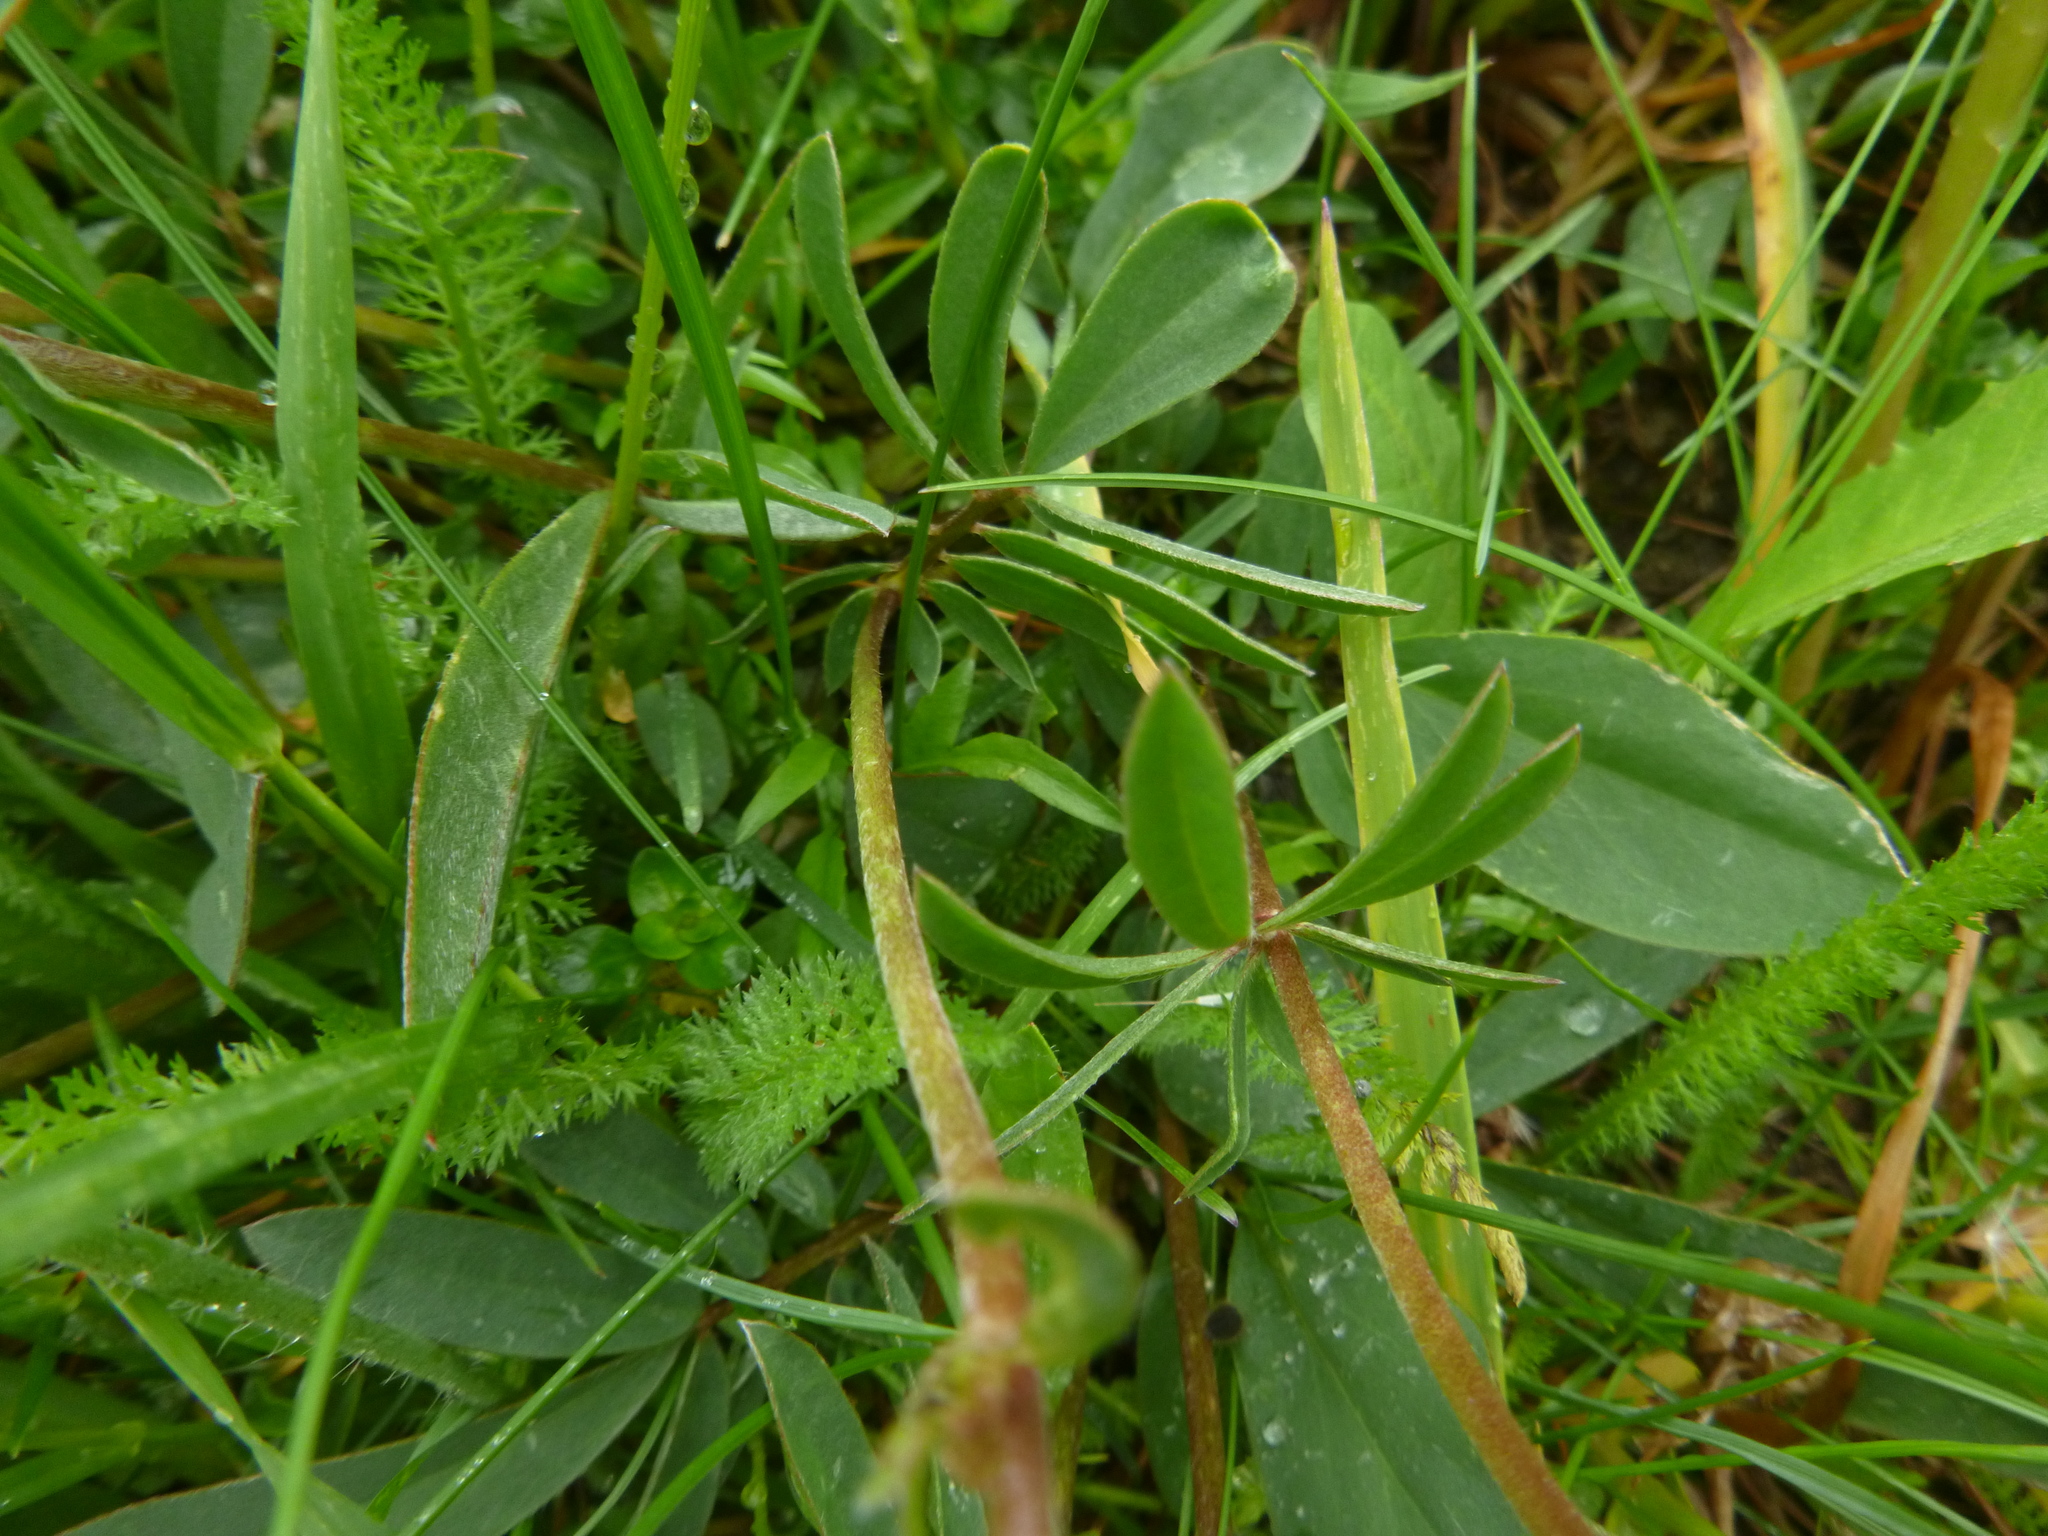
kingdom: Plantae
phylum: Tracheophyta
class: Magnoliopsida
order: Fabales
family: Fabaceae
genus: Anthyllis
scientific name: Anthyllis vulneraria
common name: Kidney vetch
